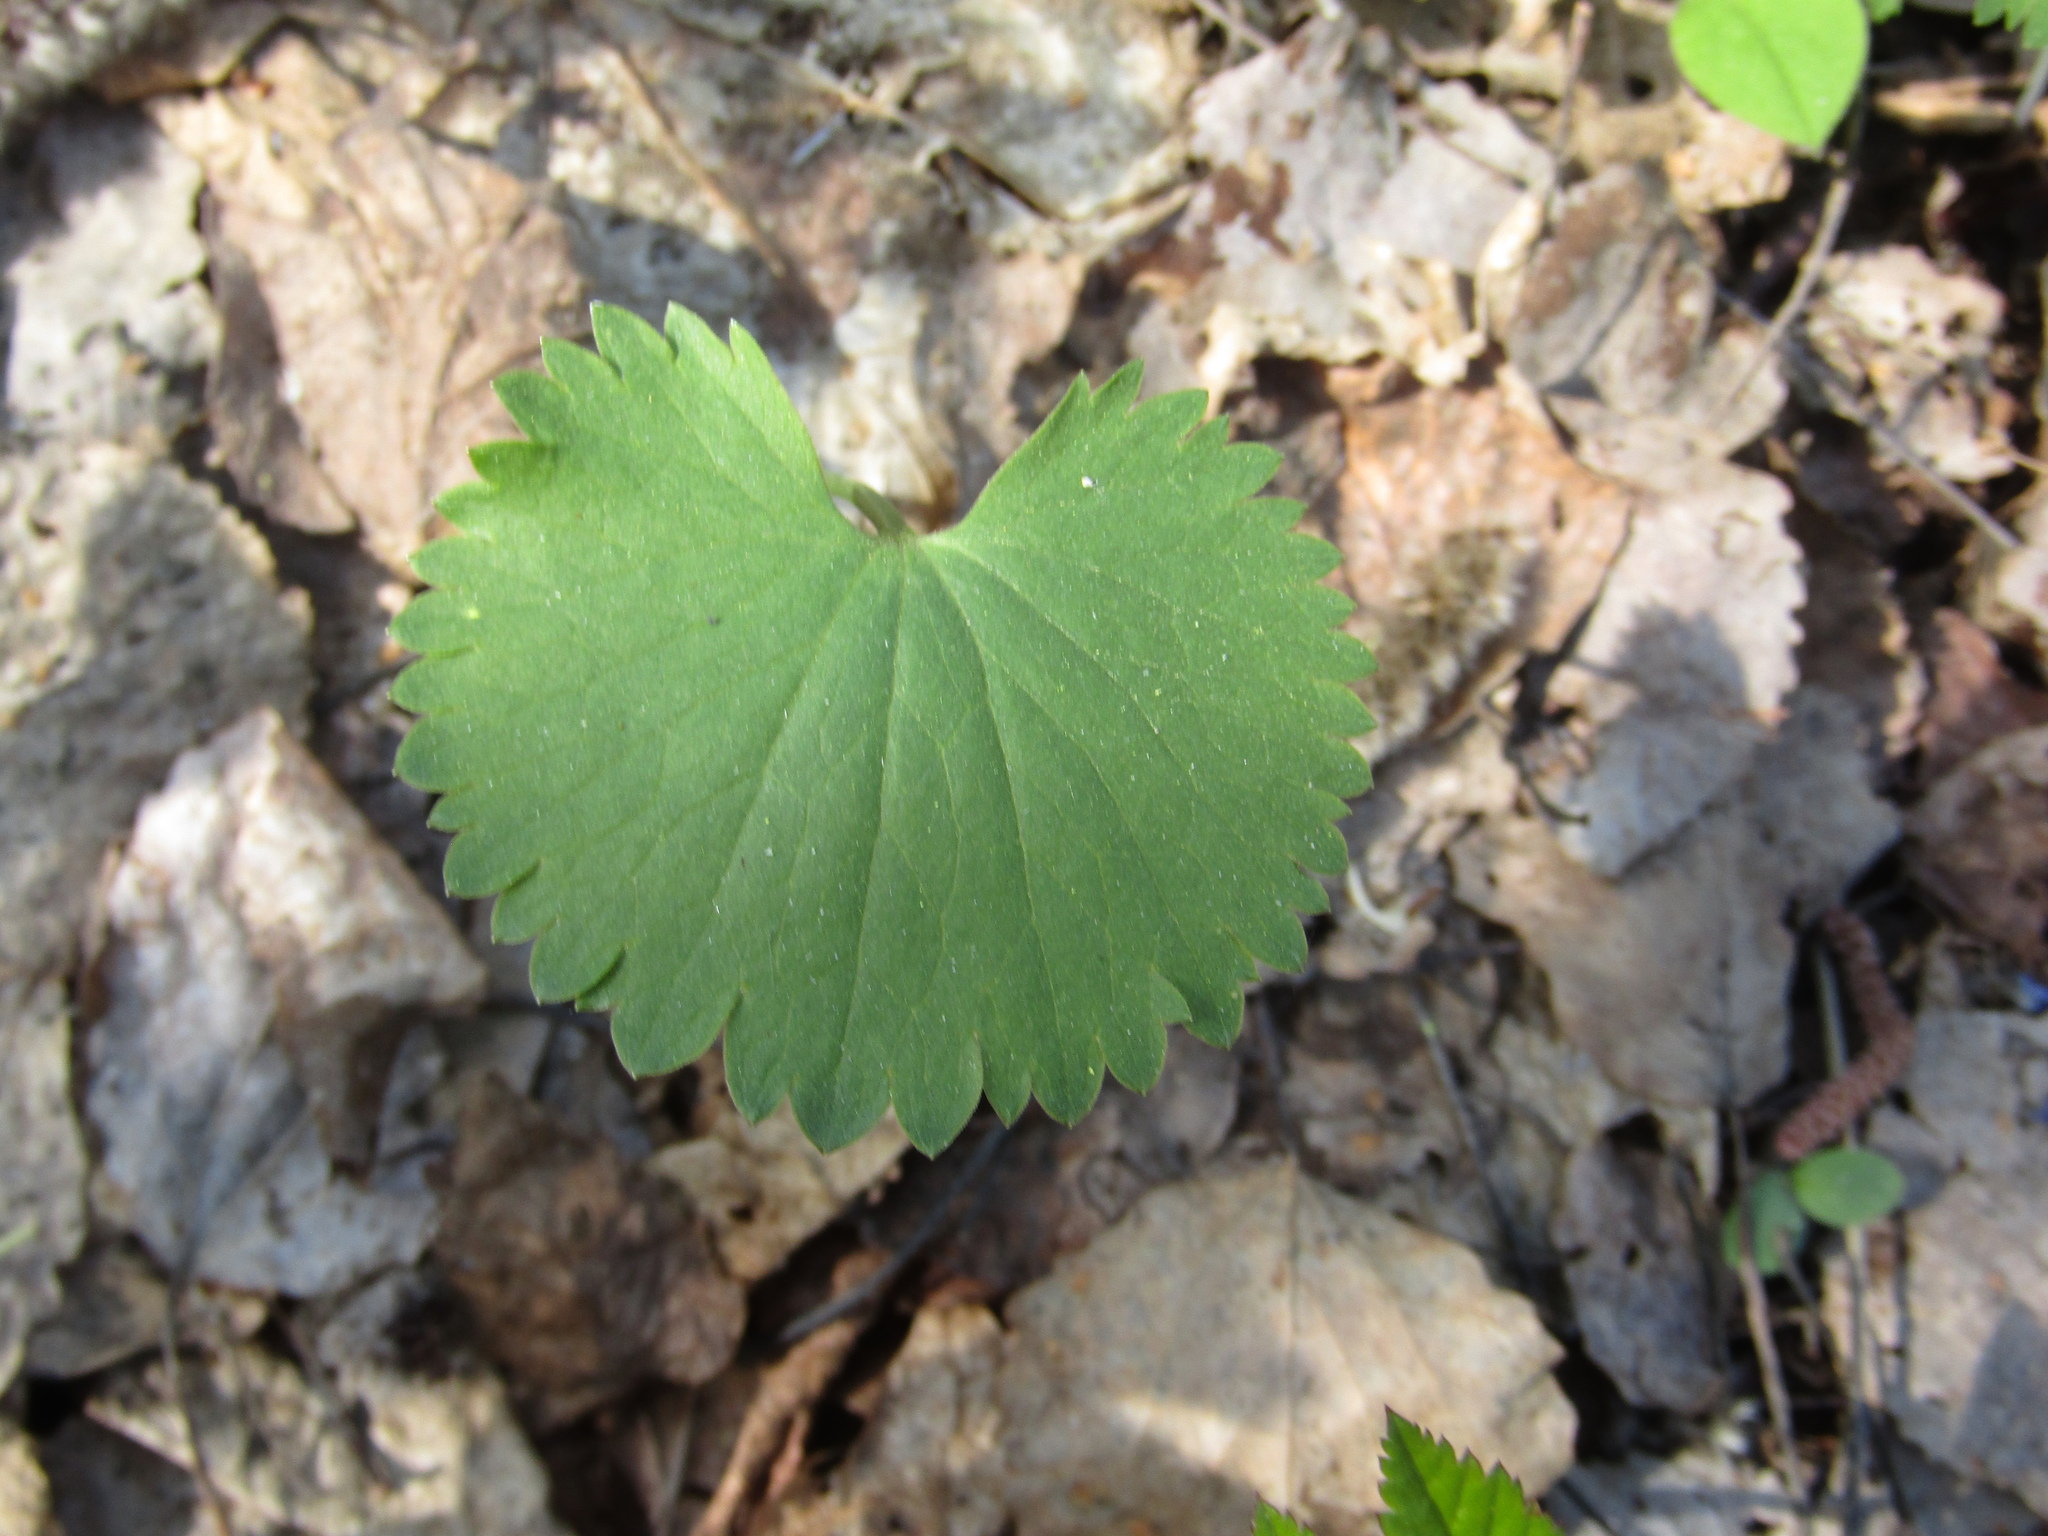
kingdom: Plantae
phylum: Tracheophyta
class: Magnoliopsida
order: Ranunculales
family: Ranunculaceae
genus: Ranunculus
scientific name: Ranunculus cassubicus
